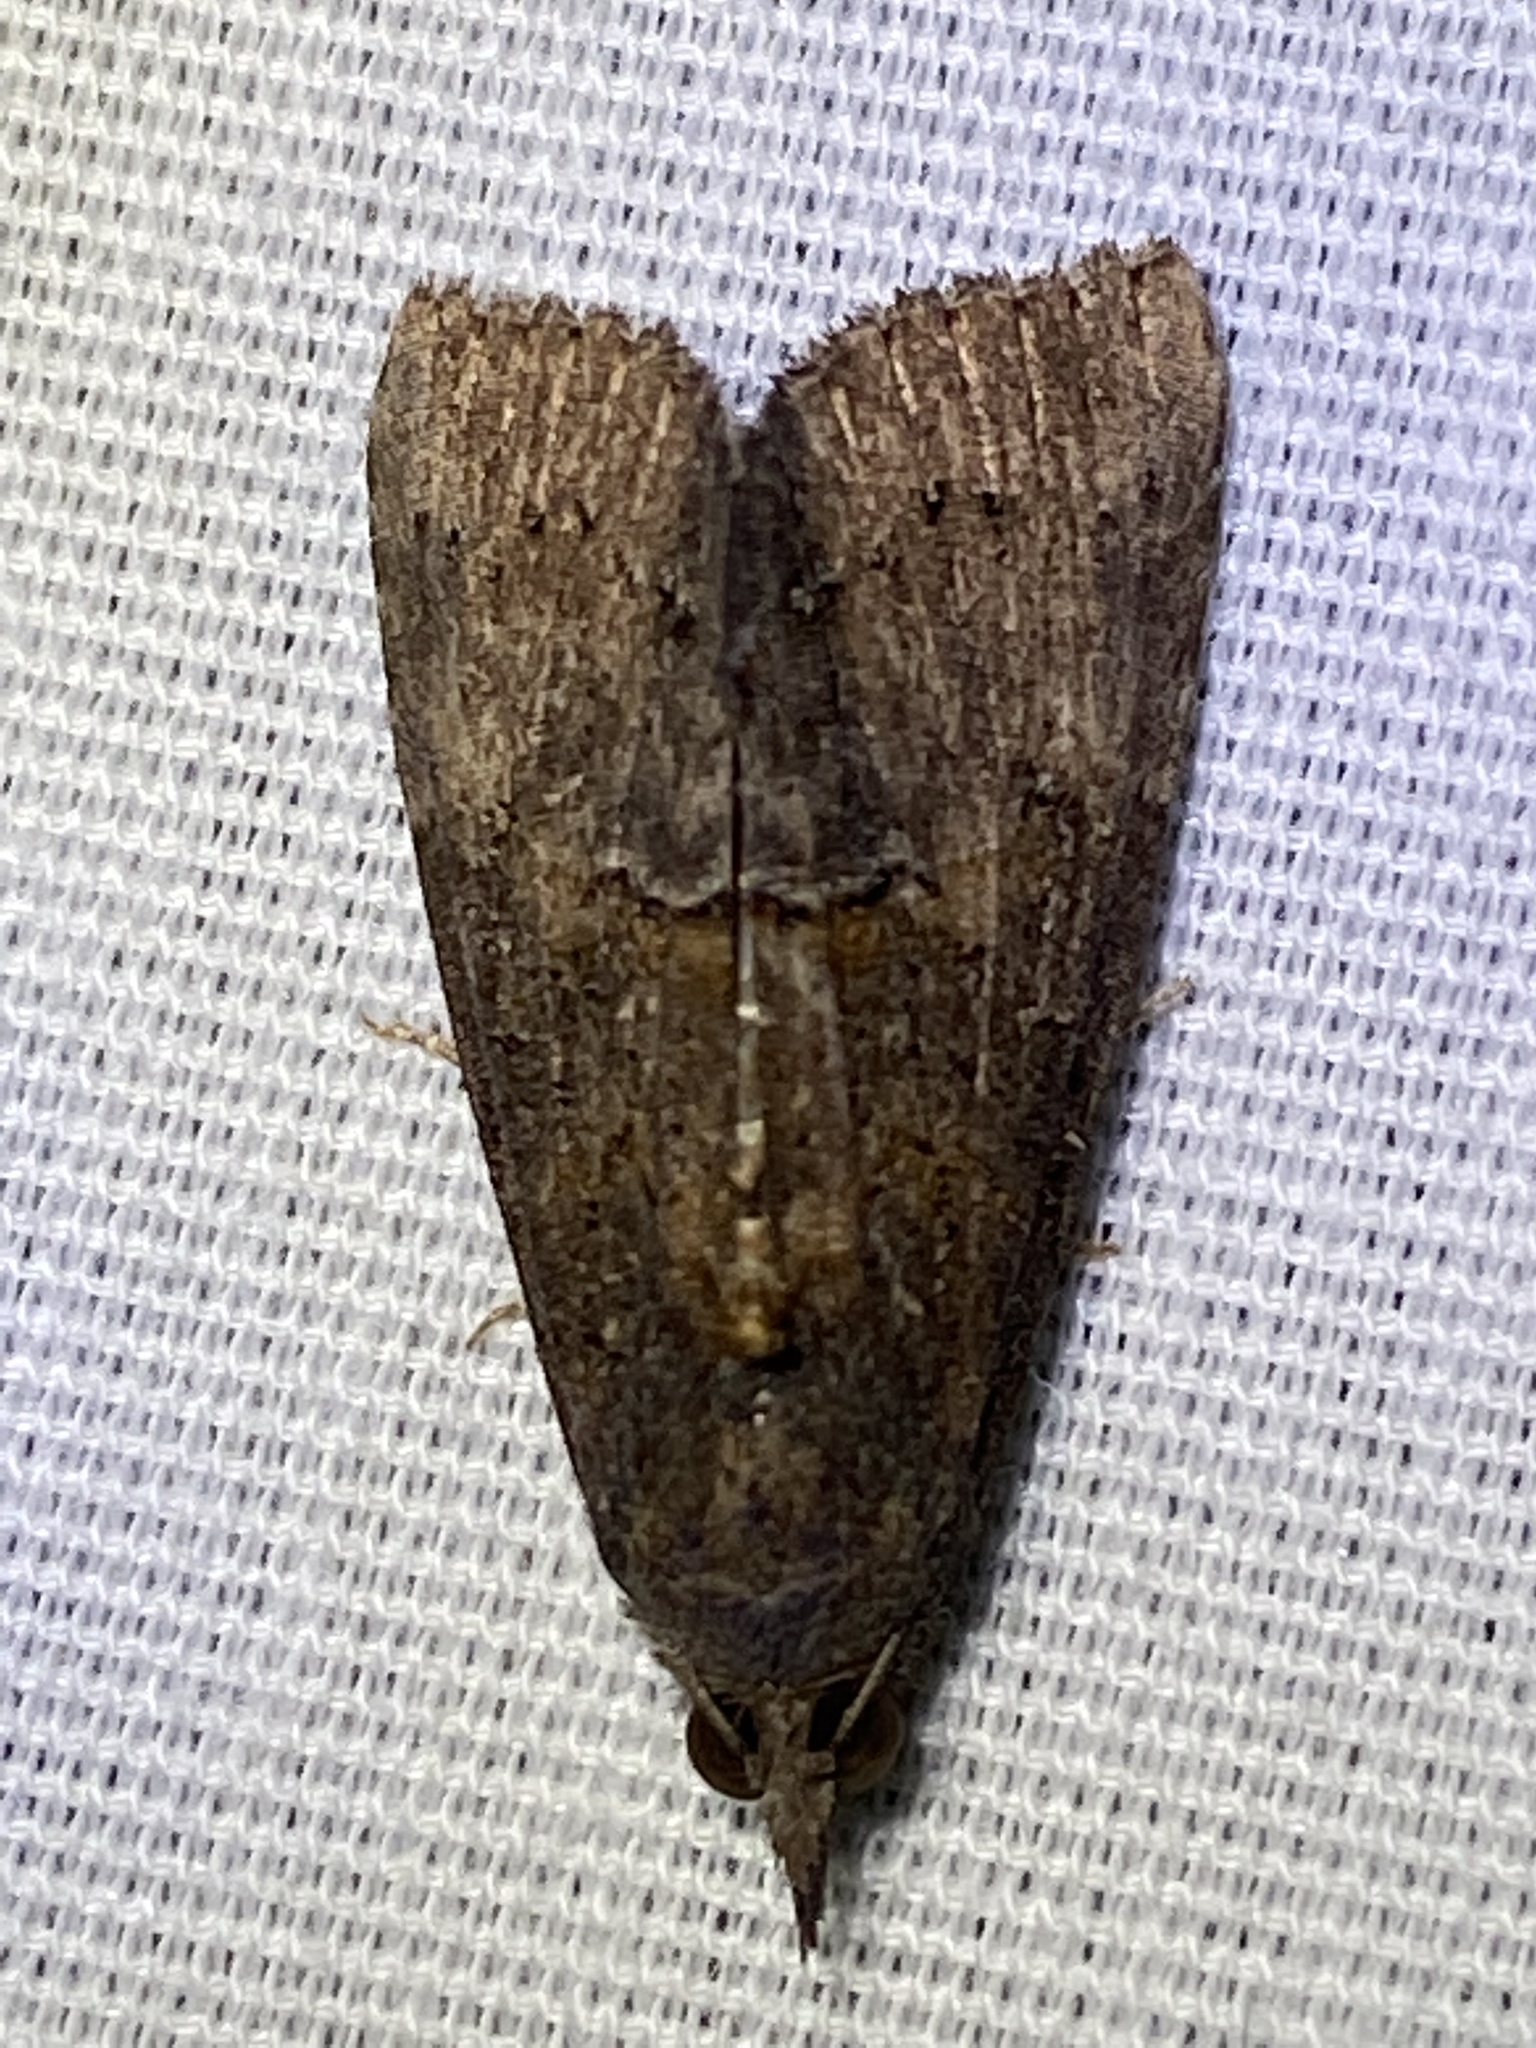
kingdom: Animalia
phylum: Arthropoda
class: Insecta
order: Lepidoptera
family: Erebidae
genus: Hypena
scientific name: Hypena scabra
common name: Green cloverworm
